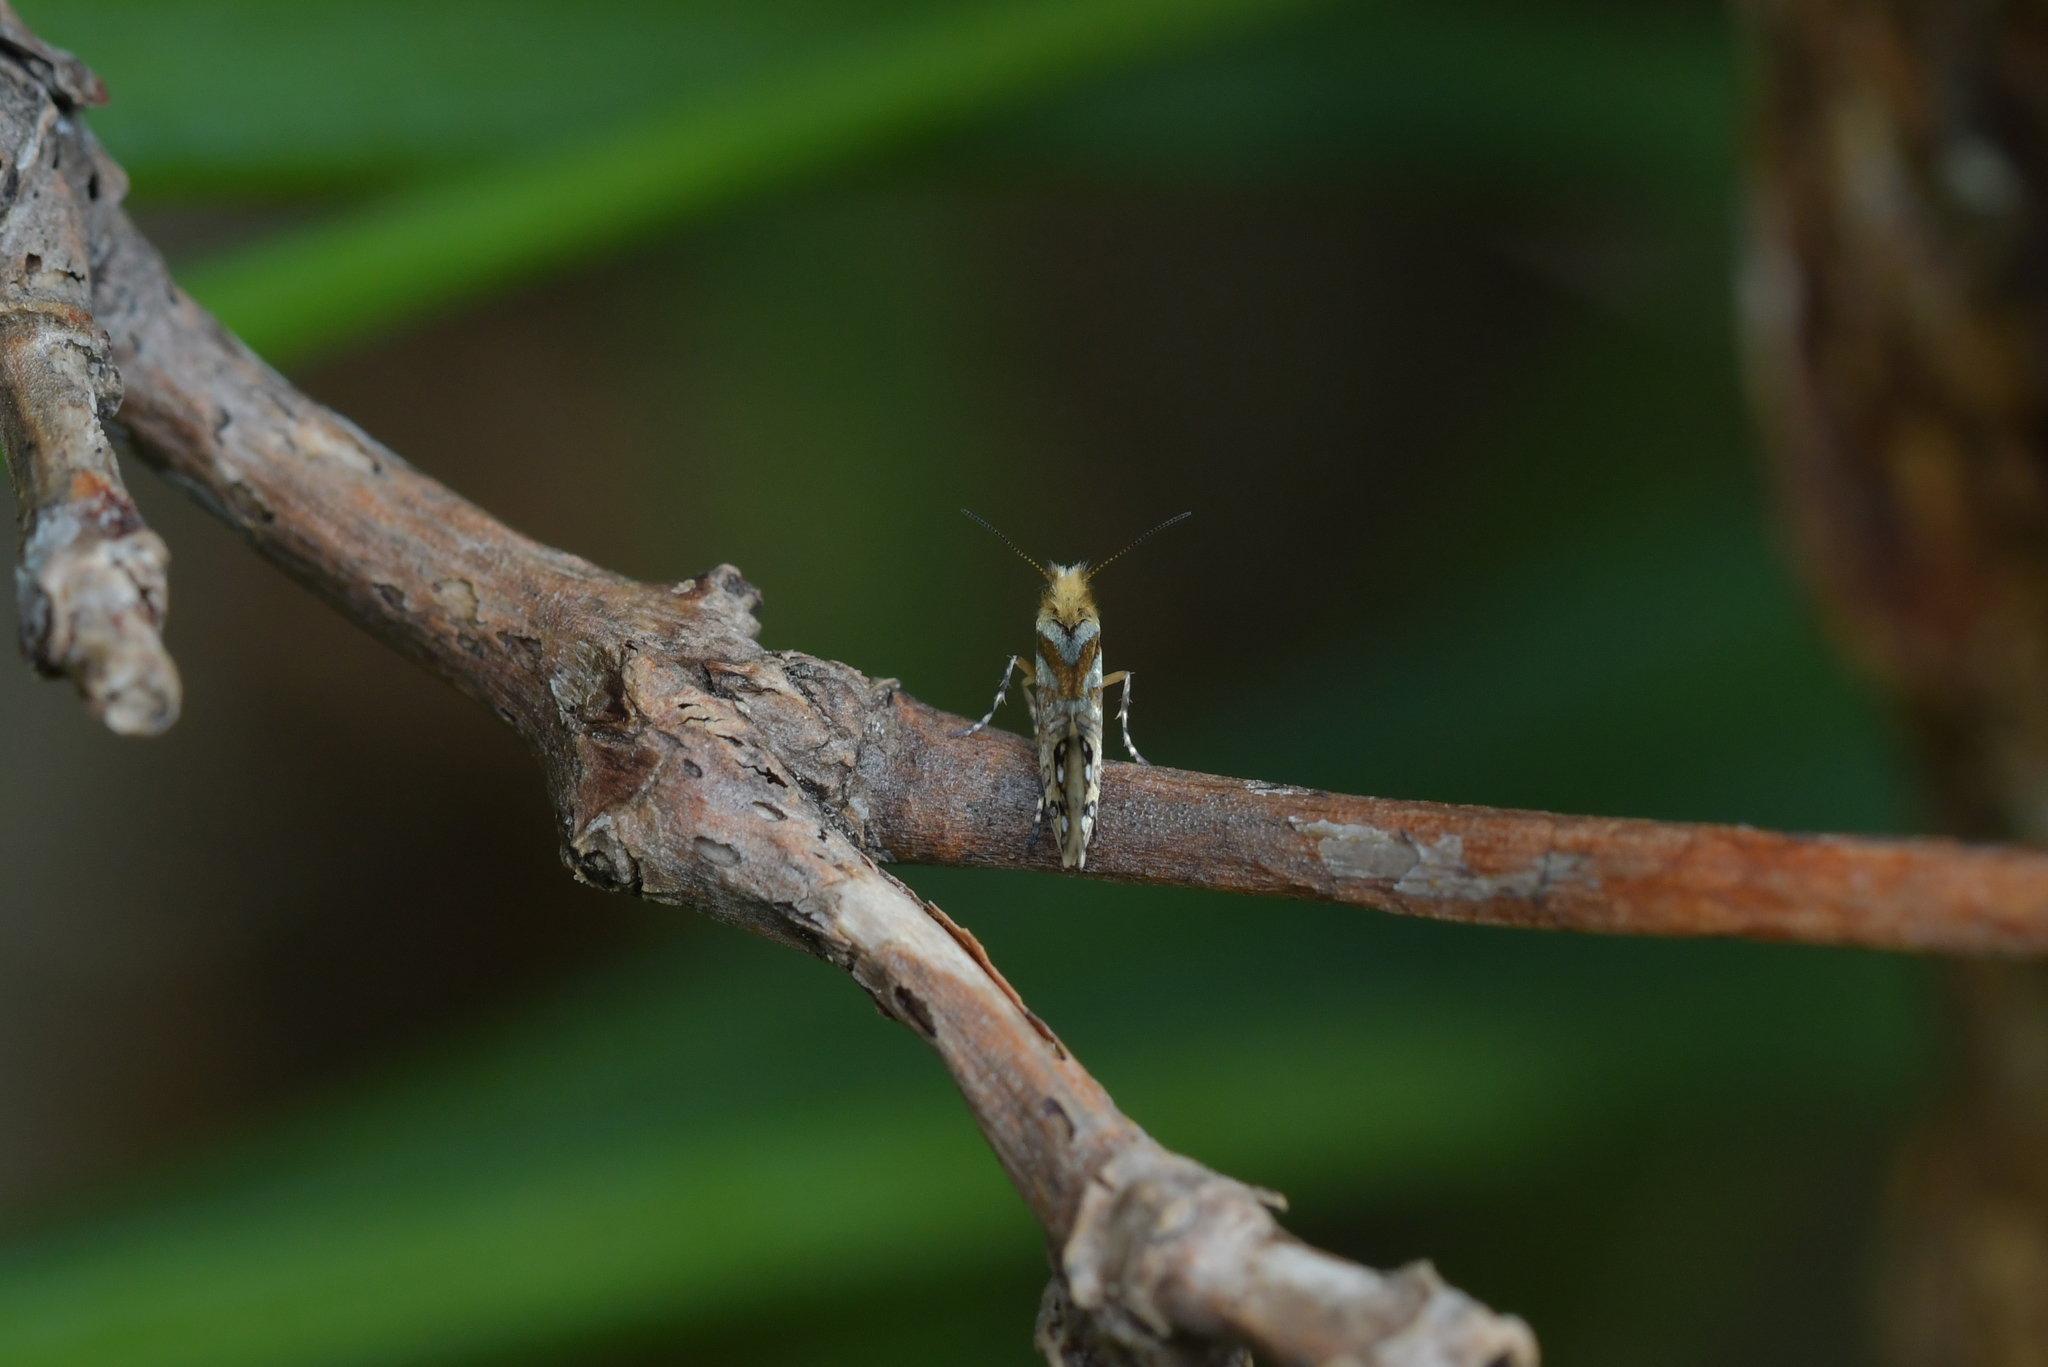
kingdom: Animalia
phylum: Arthropoda
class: Insecta
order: Lepidoptera
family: Micropterigidae
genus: Sabatinca
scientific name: Sabatinca doroxena
